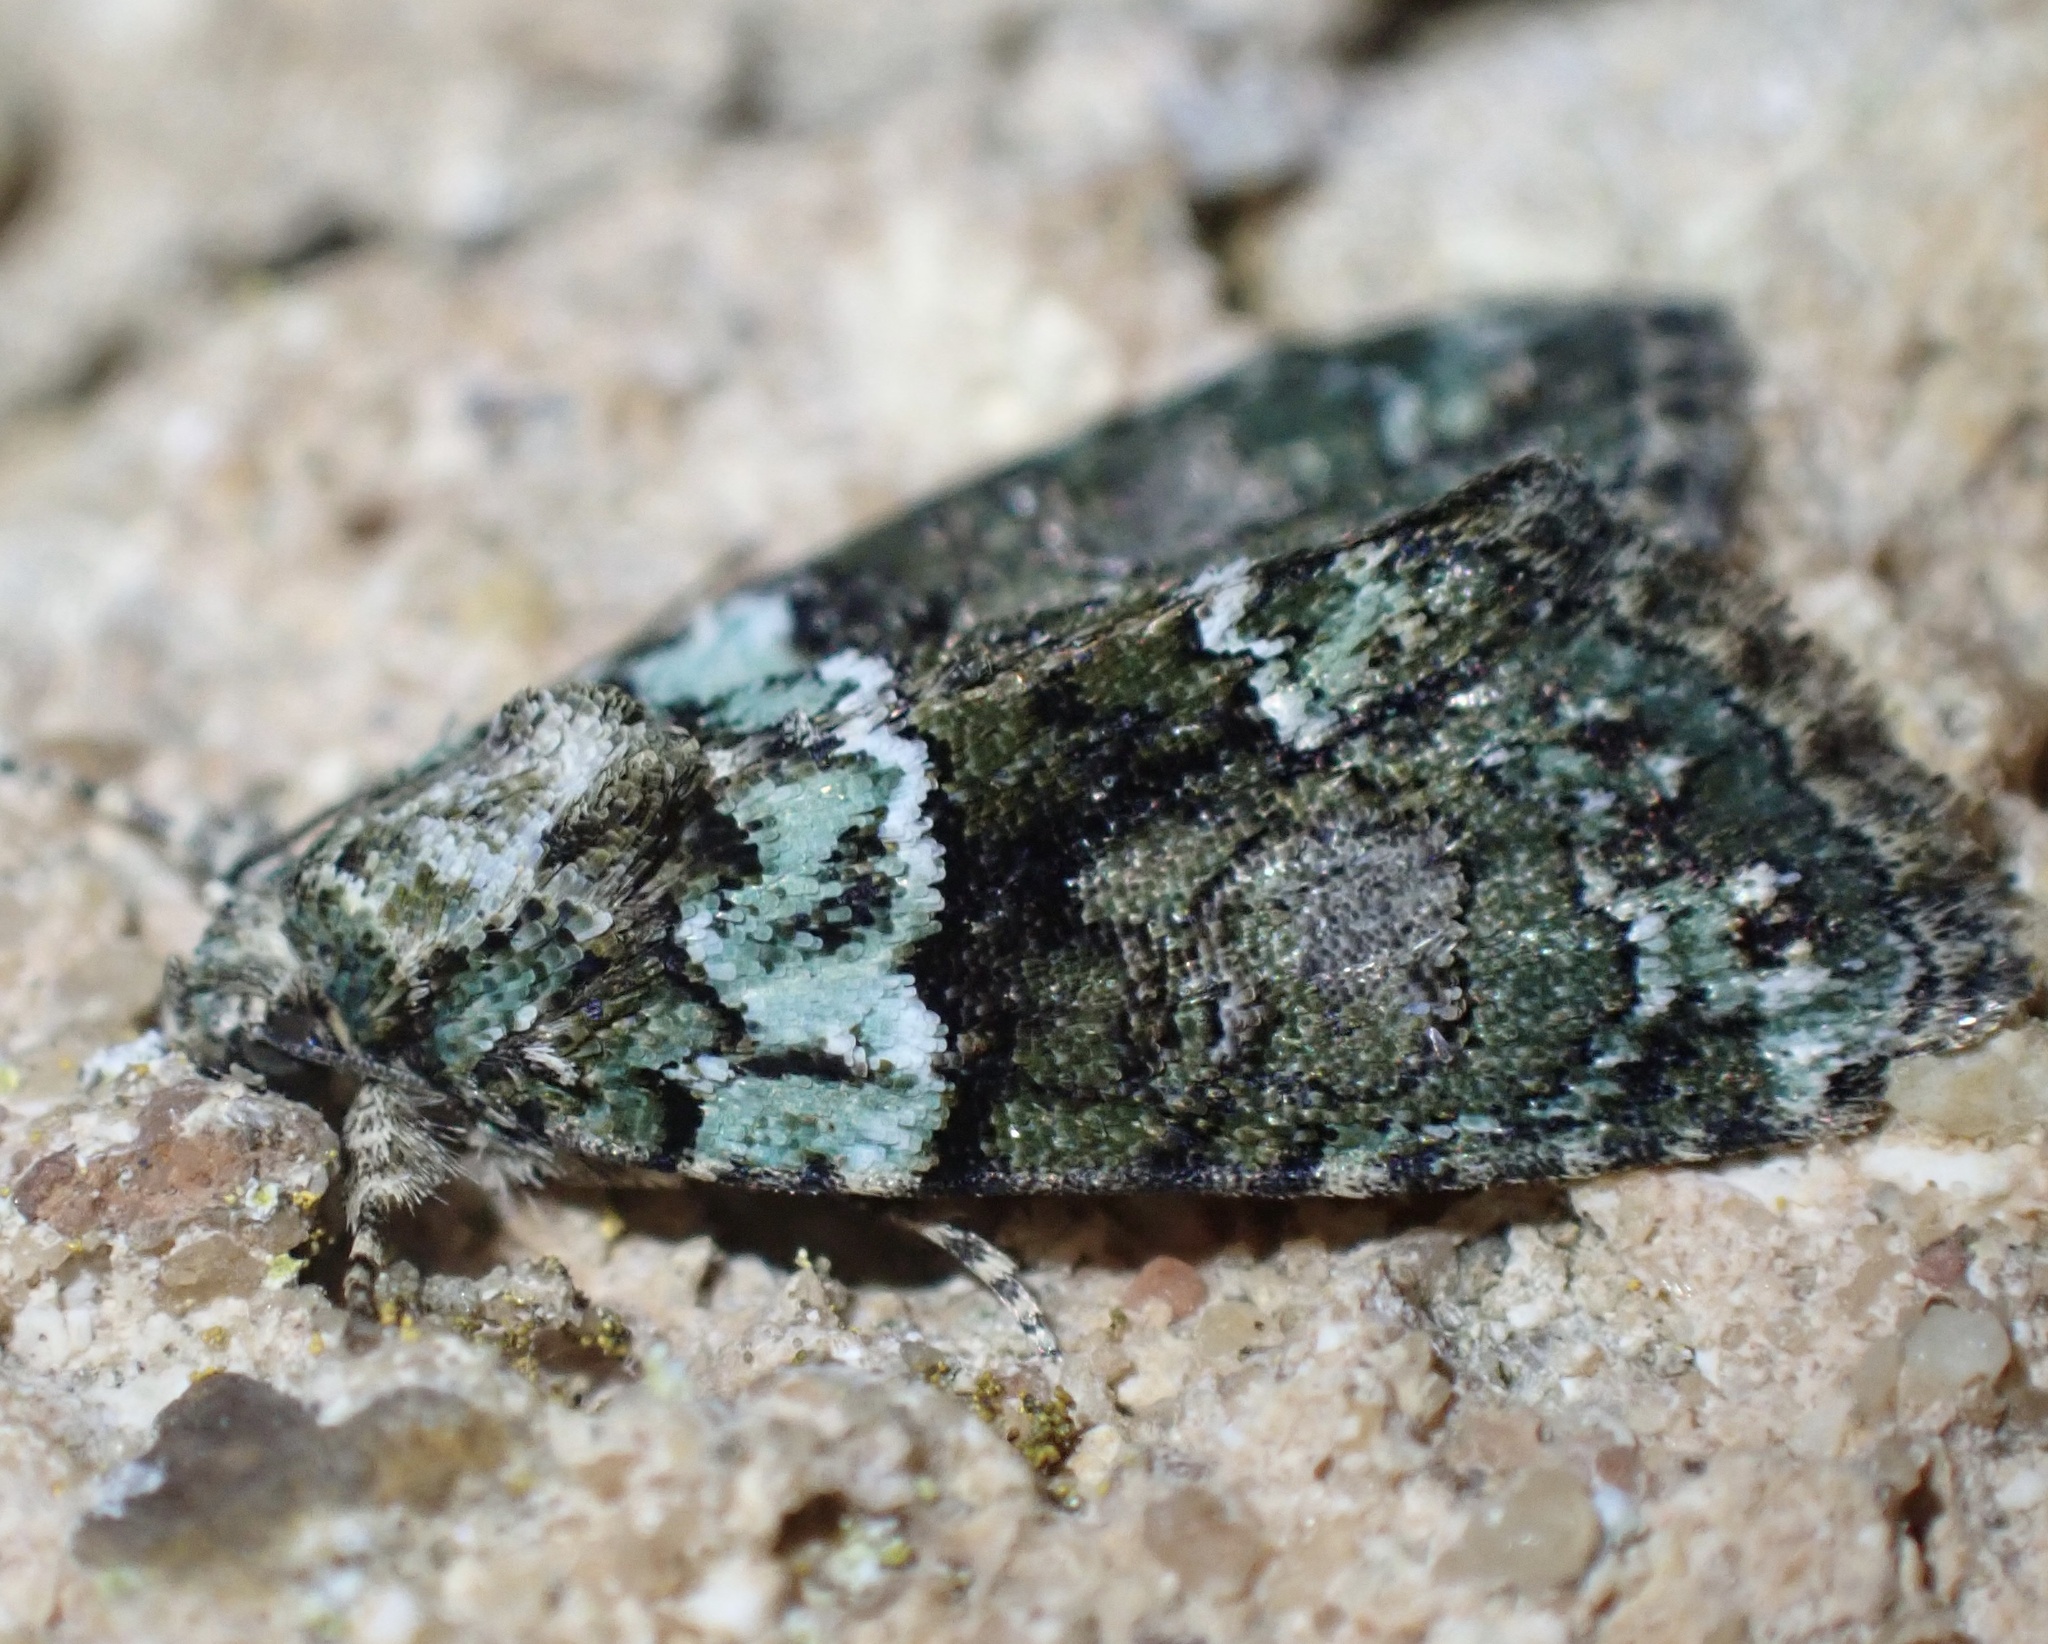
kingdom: Animalia
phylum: Arthropoda
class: Insecta
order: Lepidoptera
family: Noctuidae
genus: Cryphia
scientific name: Cryphia algae
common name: Tree-lichen beauty
